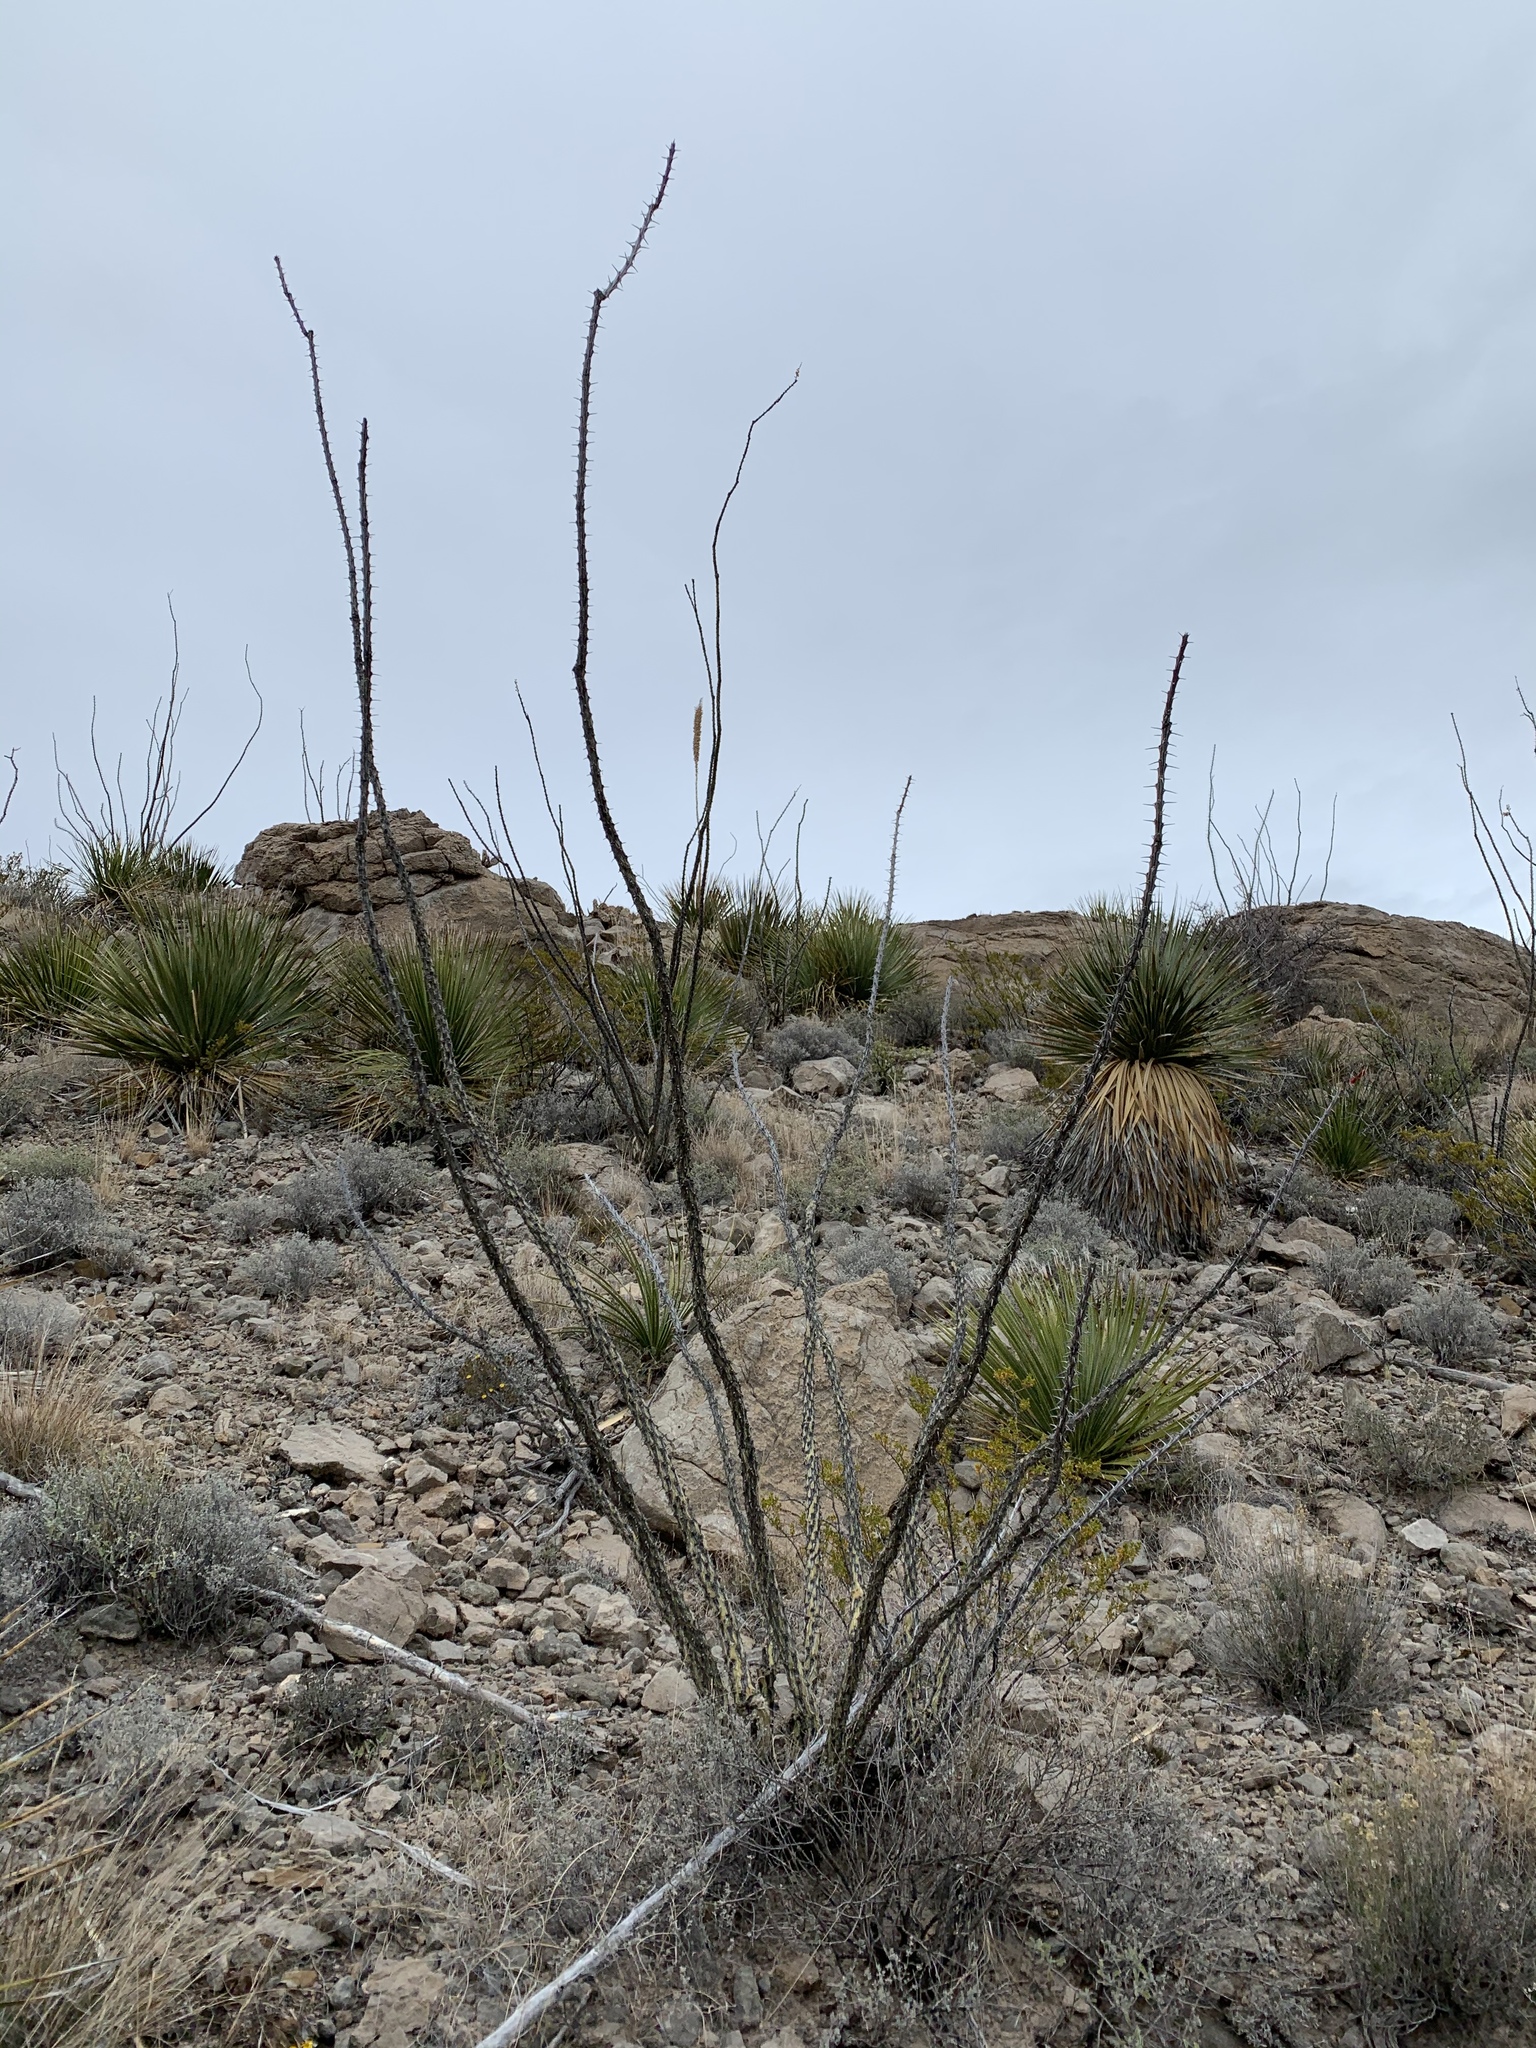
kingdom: Plantae
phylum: Tracheophyta
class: Magnoliopsida
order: Ericales
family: Fouquieriaceae
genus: Fouquieria
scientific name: Fouquieria splendens
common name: Vine-cactus
